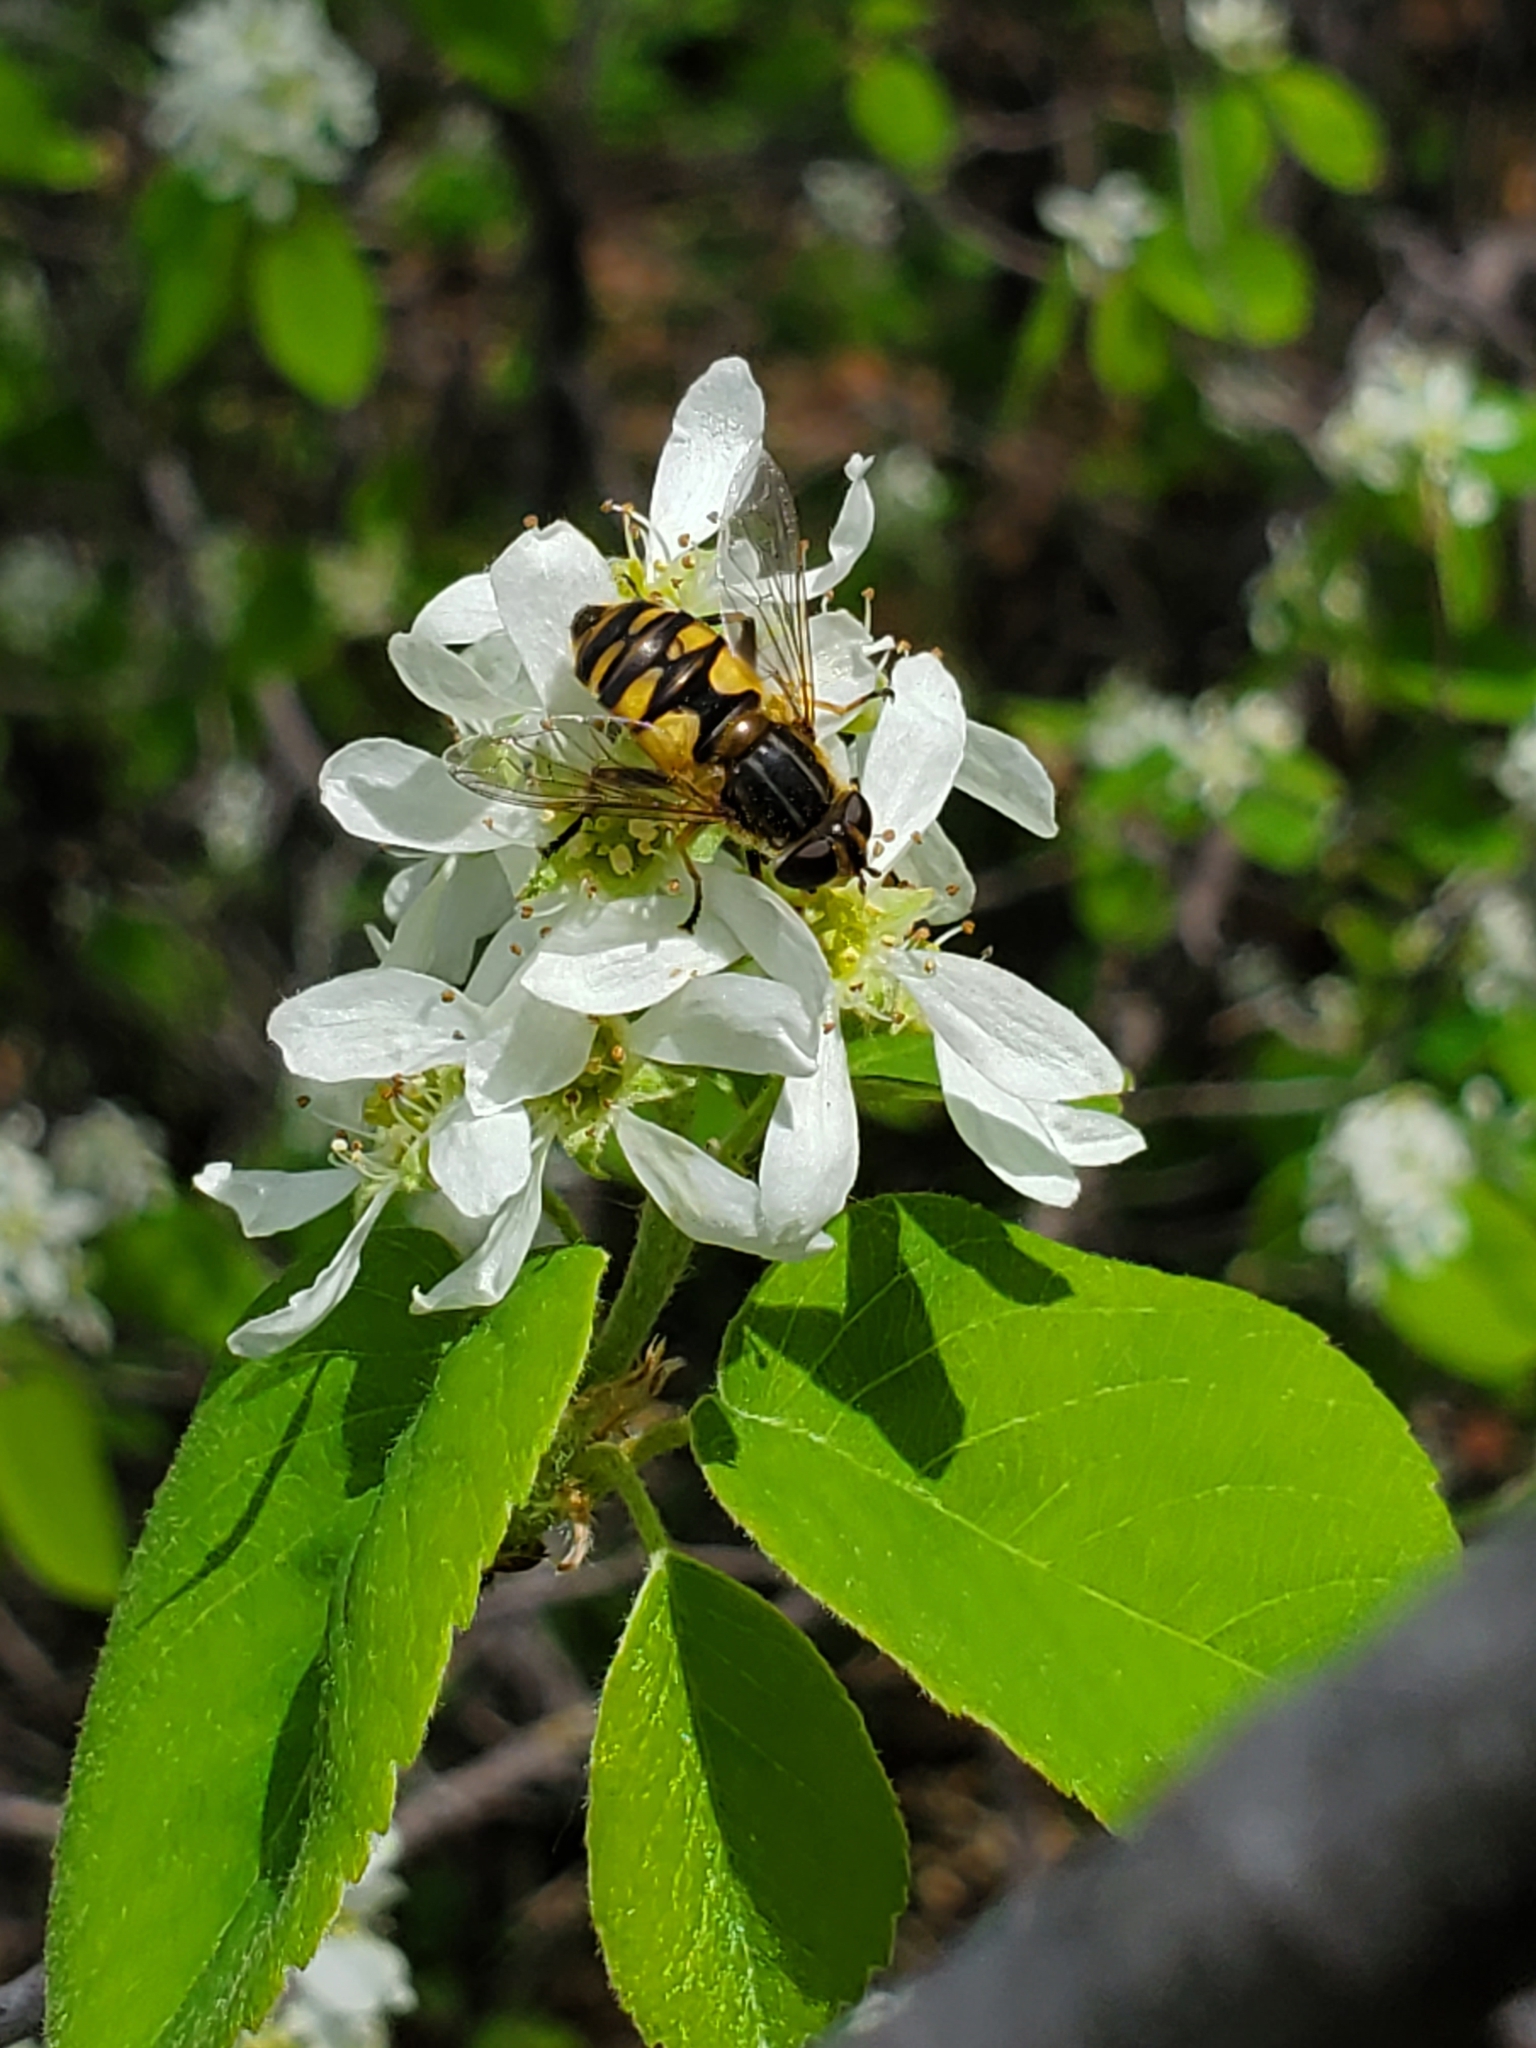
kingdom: Animalia
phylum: Arthropoda
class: Insecta
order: Diptera
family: Syrphidae
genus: Helophilus
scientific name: Helophilus hybridus
